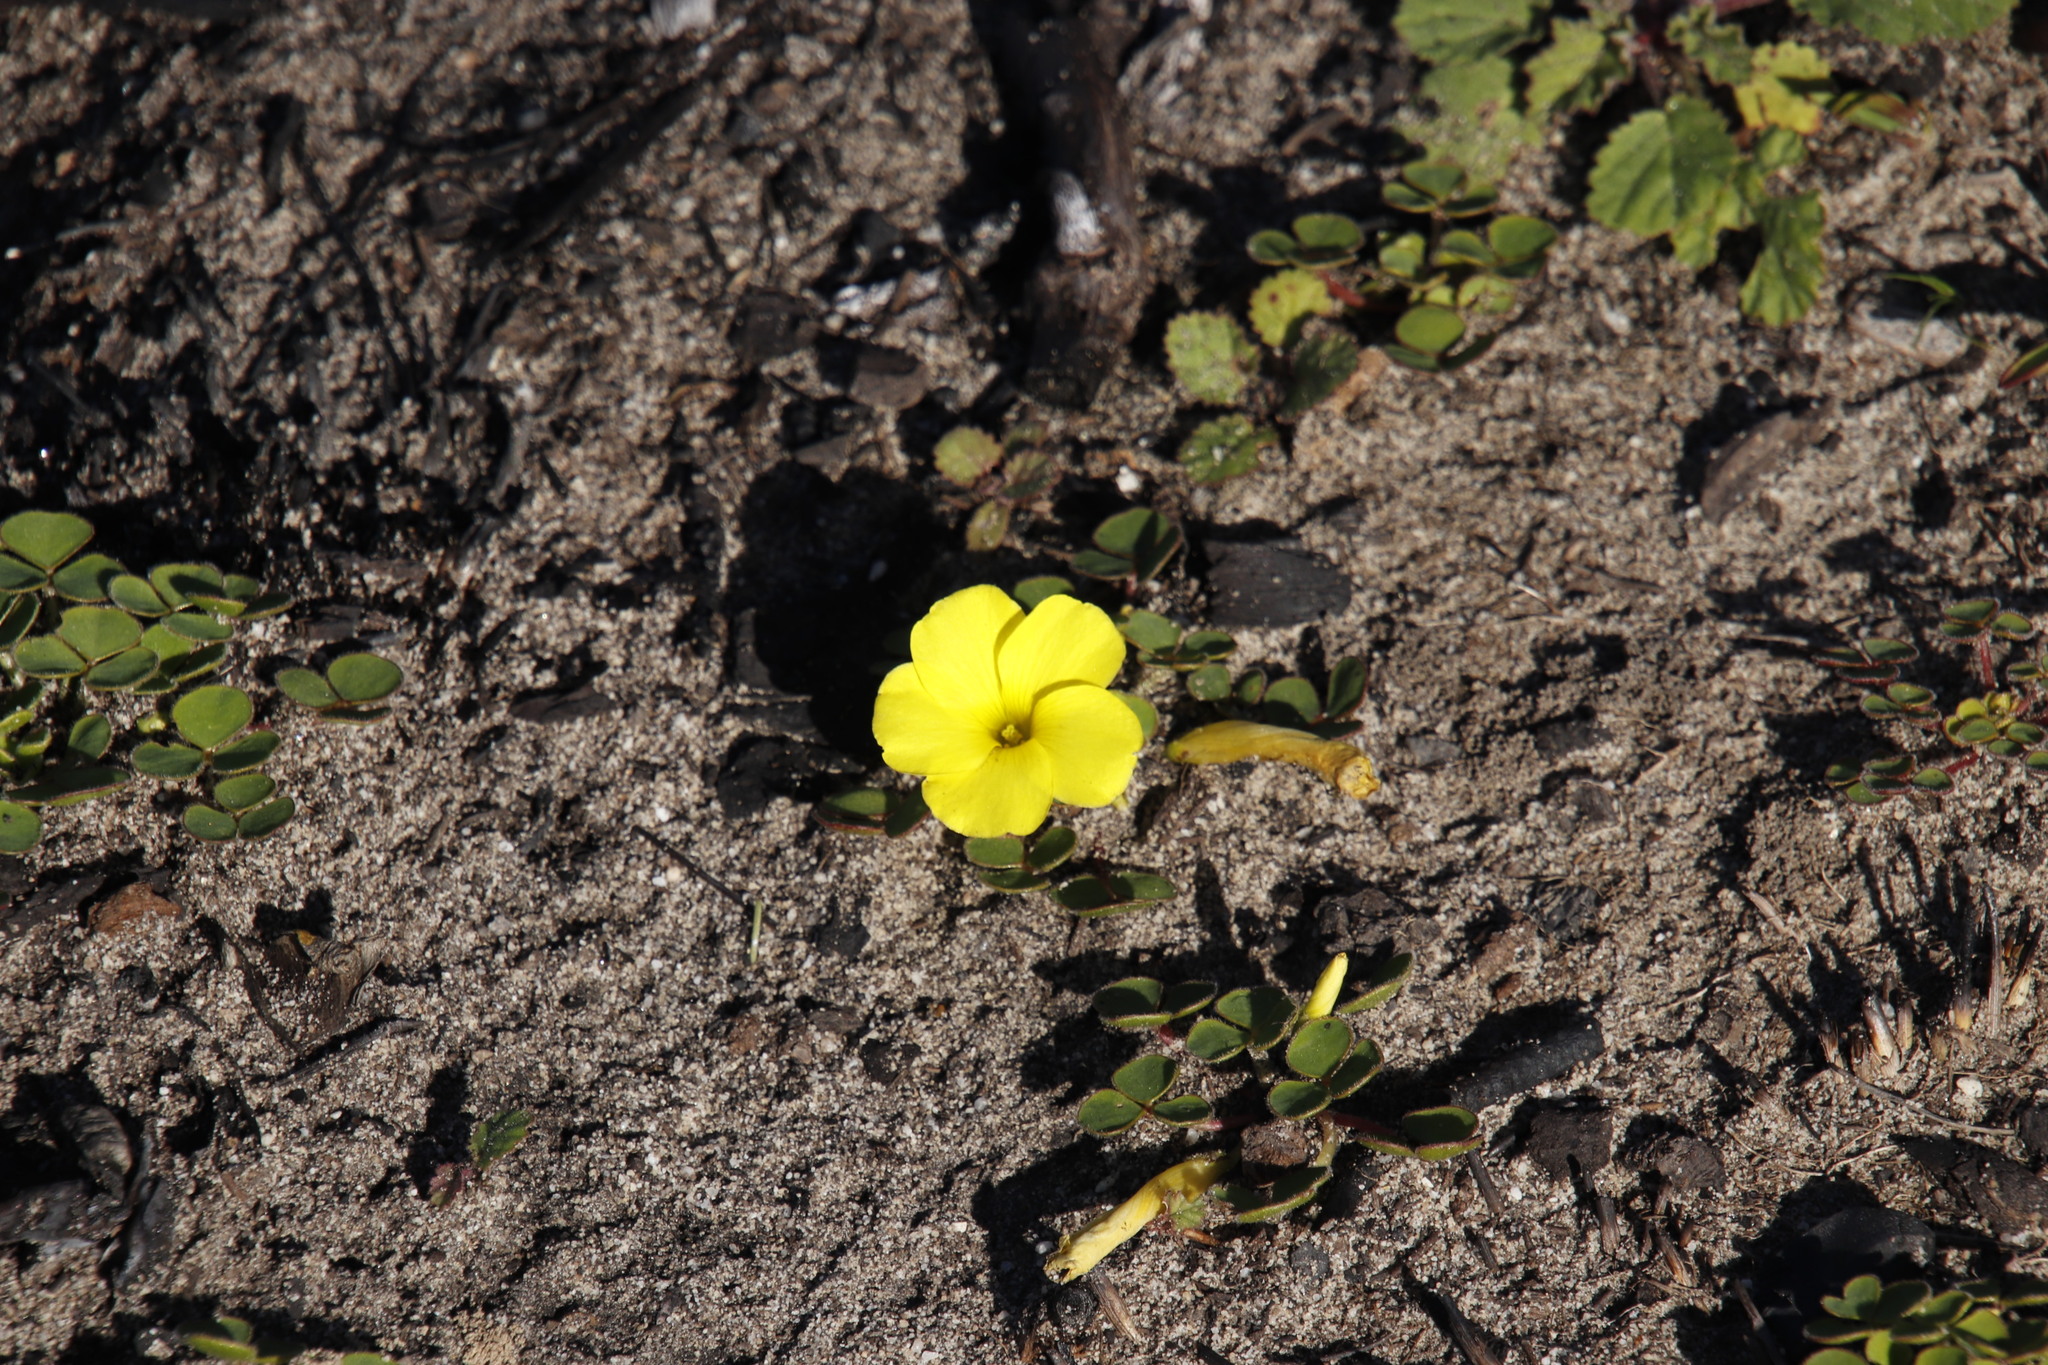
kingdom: Plantae
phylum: Tracheophyta
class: Magnoliopsida
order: Oxalidales
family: Oxalidaceae
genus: Oxalis
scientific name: Oxalis luteola
